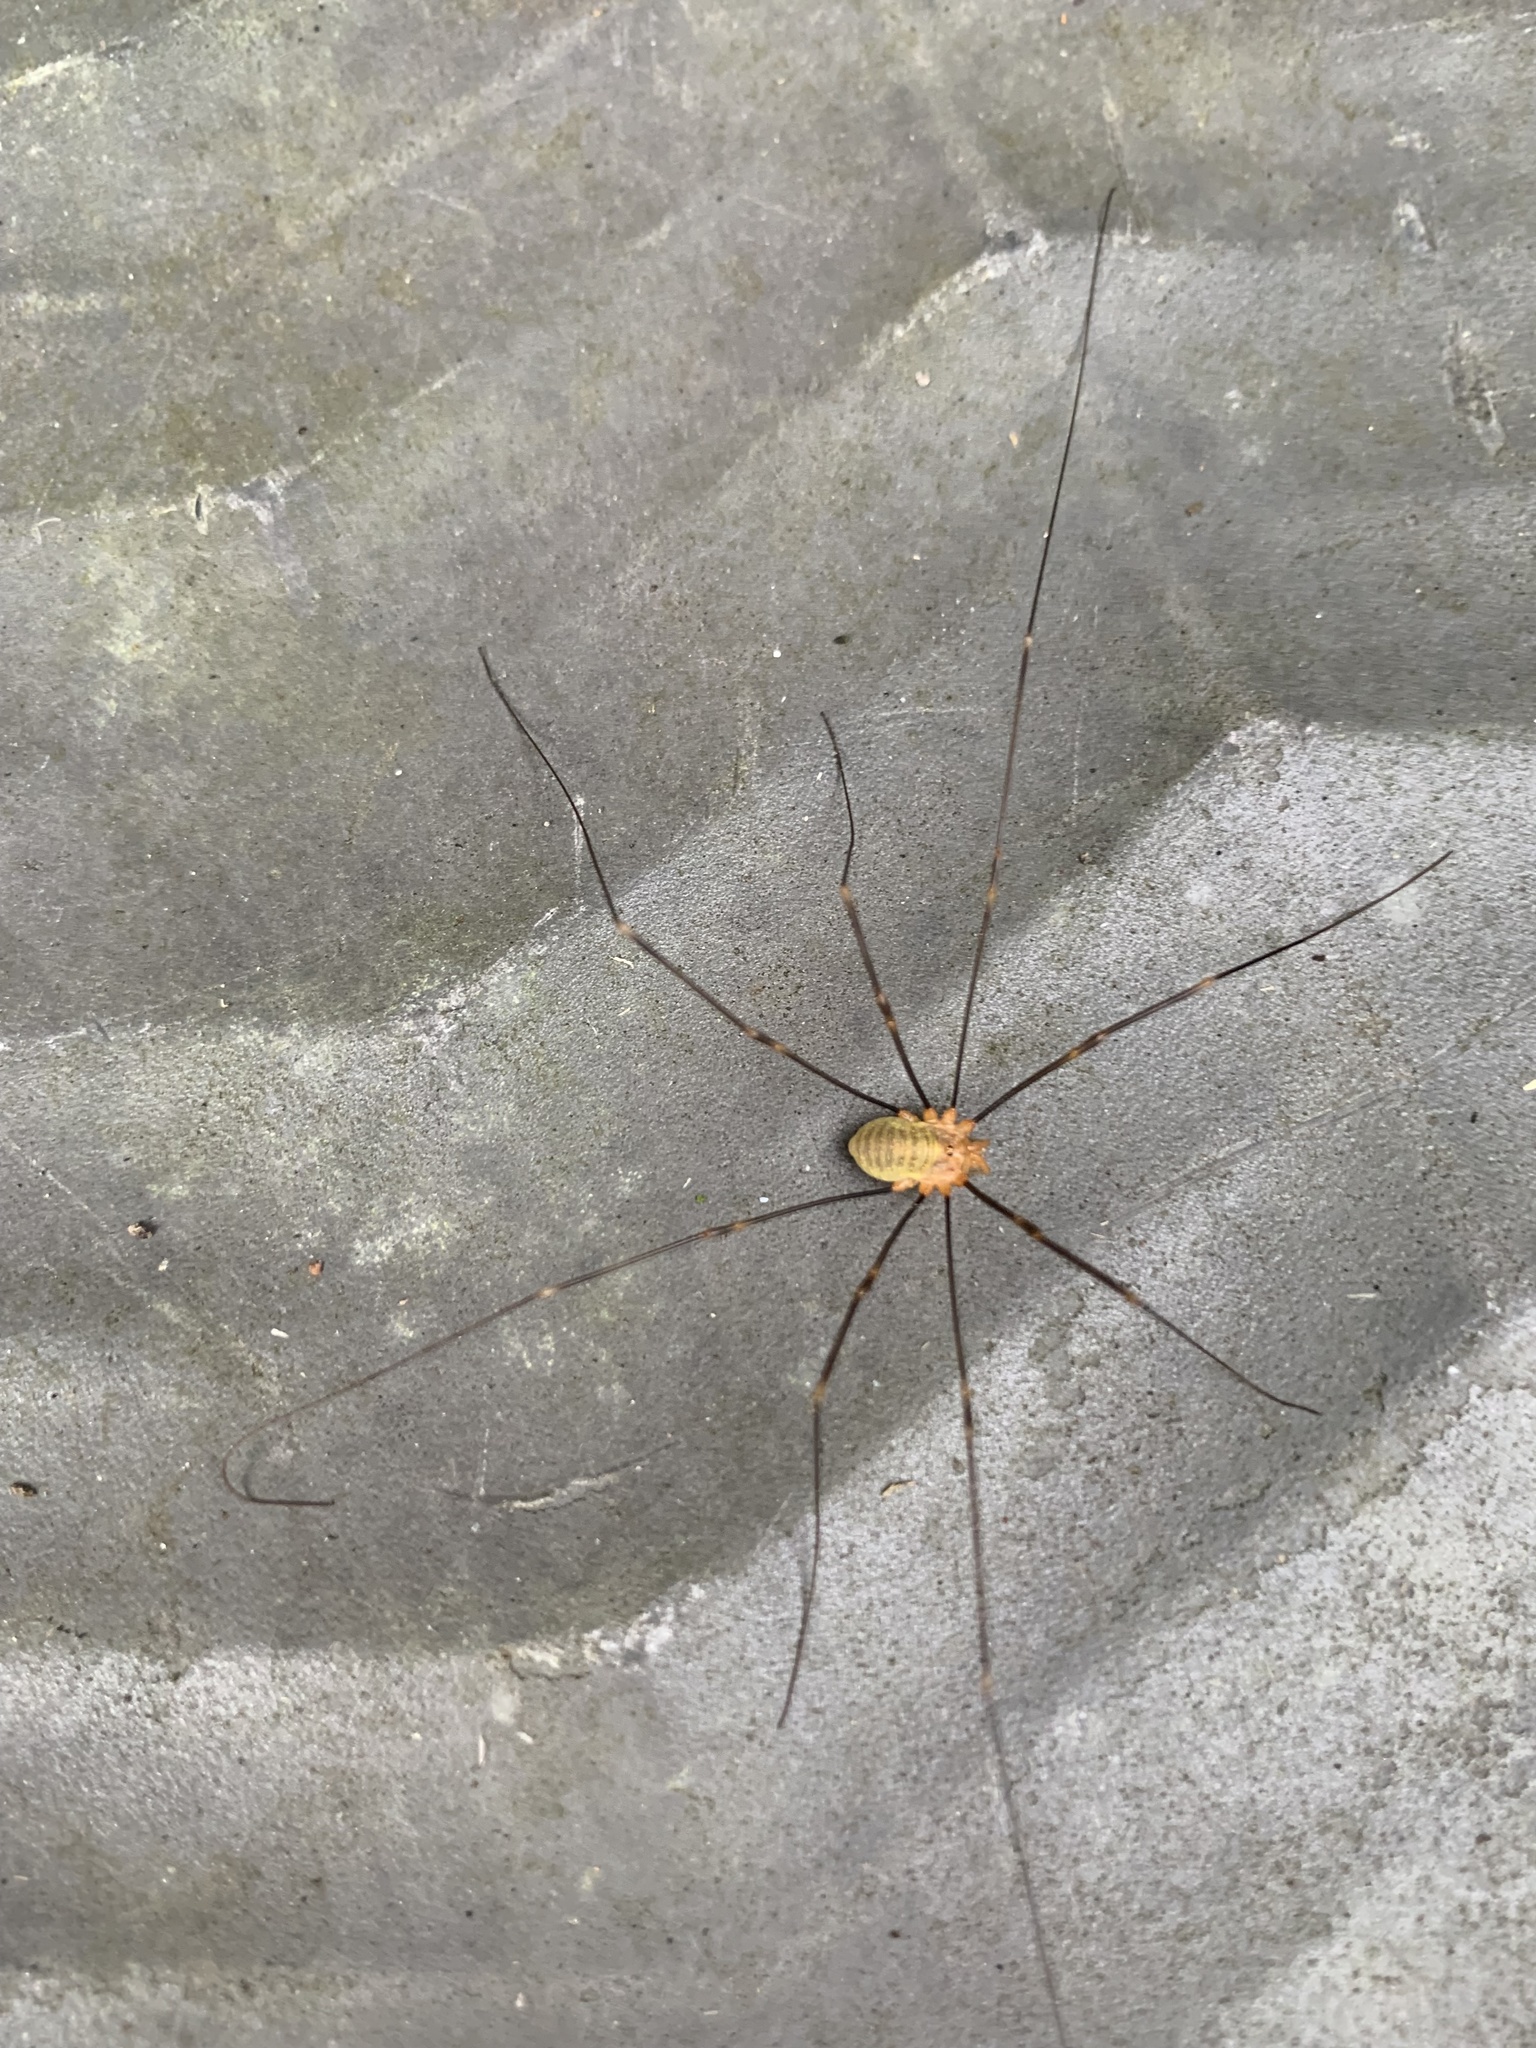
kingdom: Animalia
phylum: Arthropoda
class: Arachnida
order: Opiliones
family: Phalangiidae
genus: Opilio
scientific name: Opilio canestrinii
